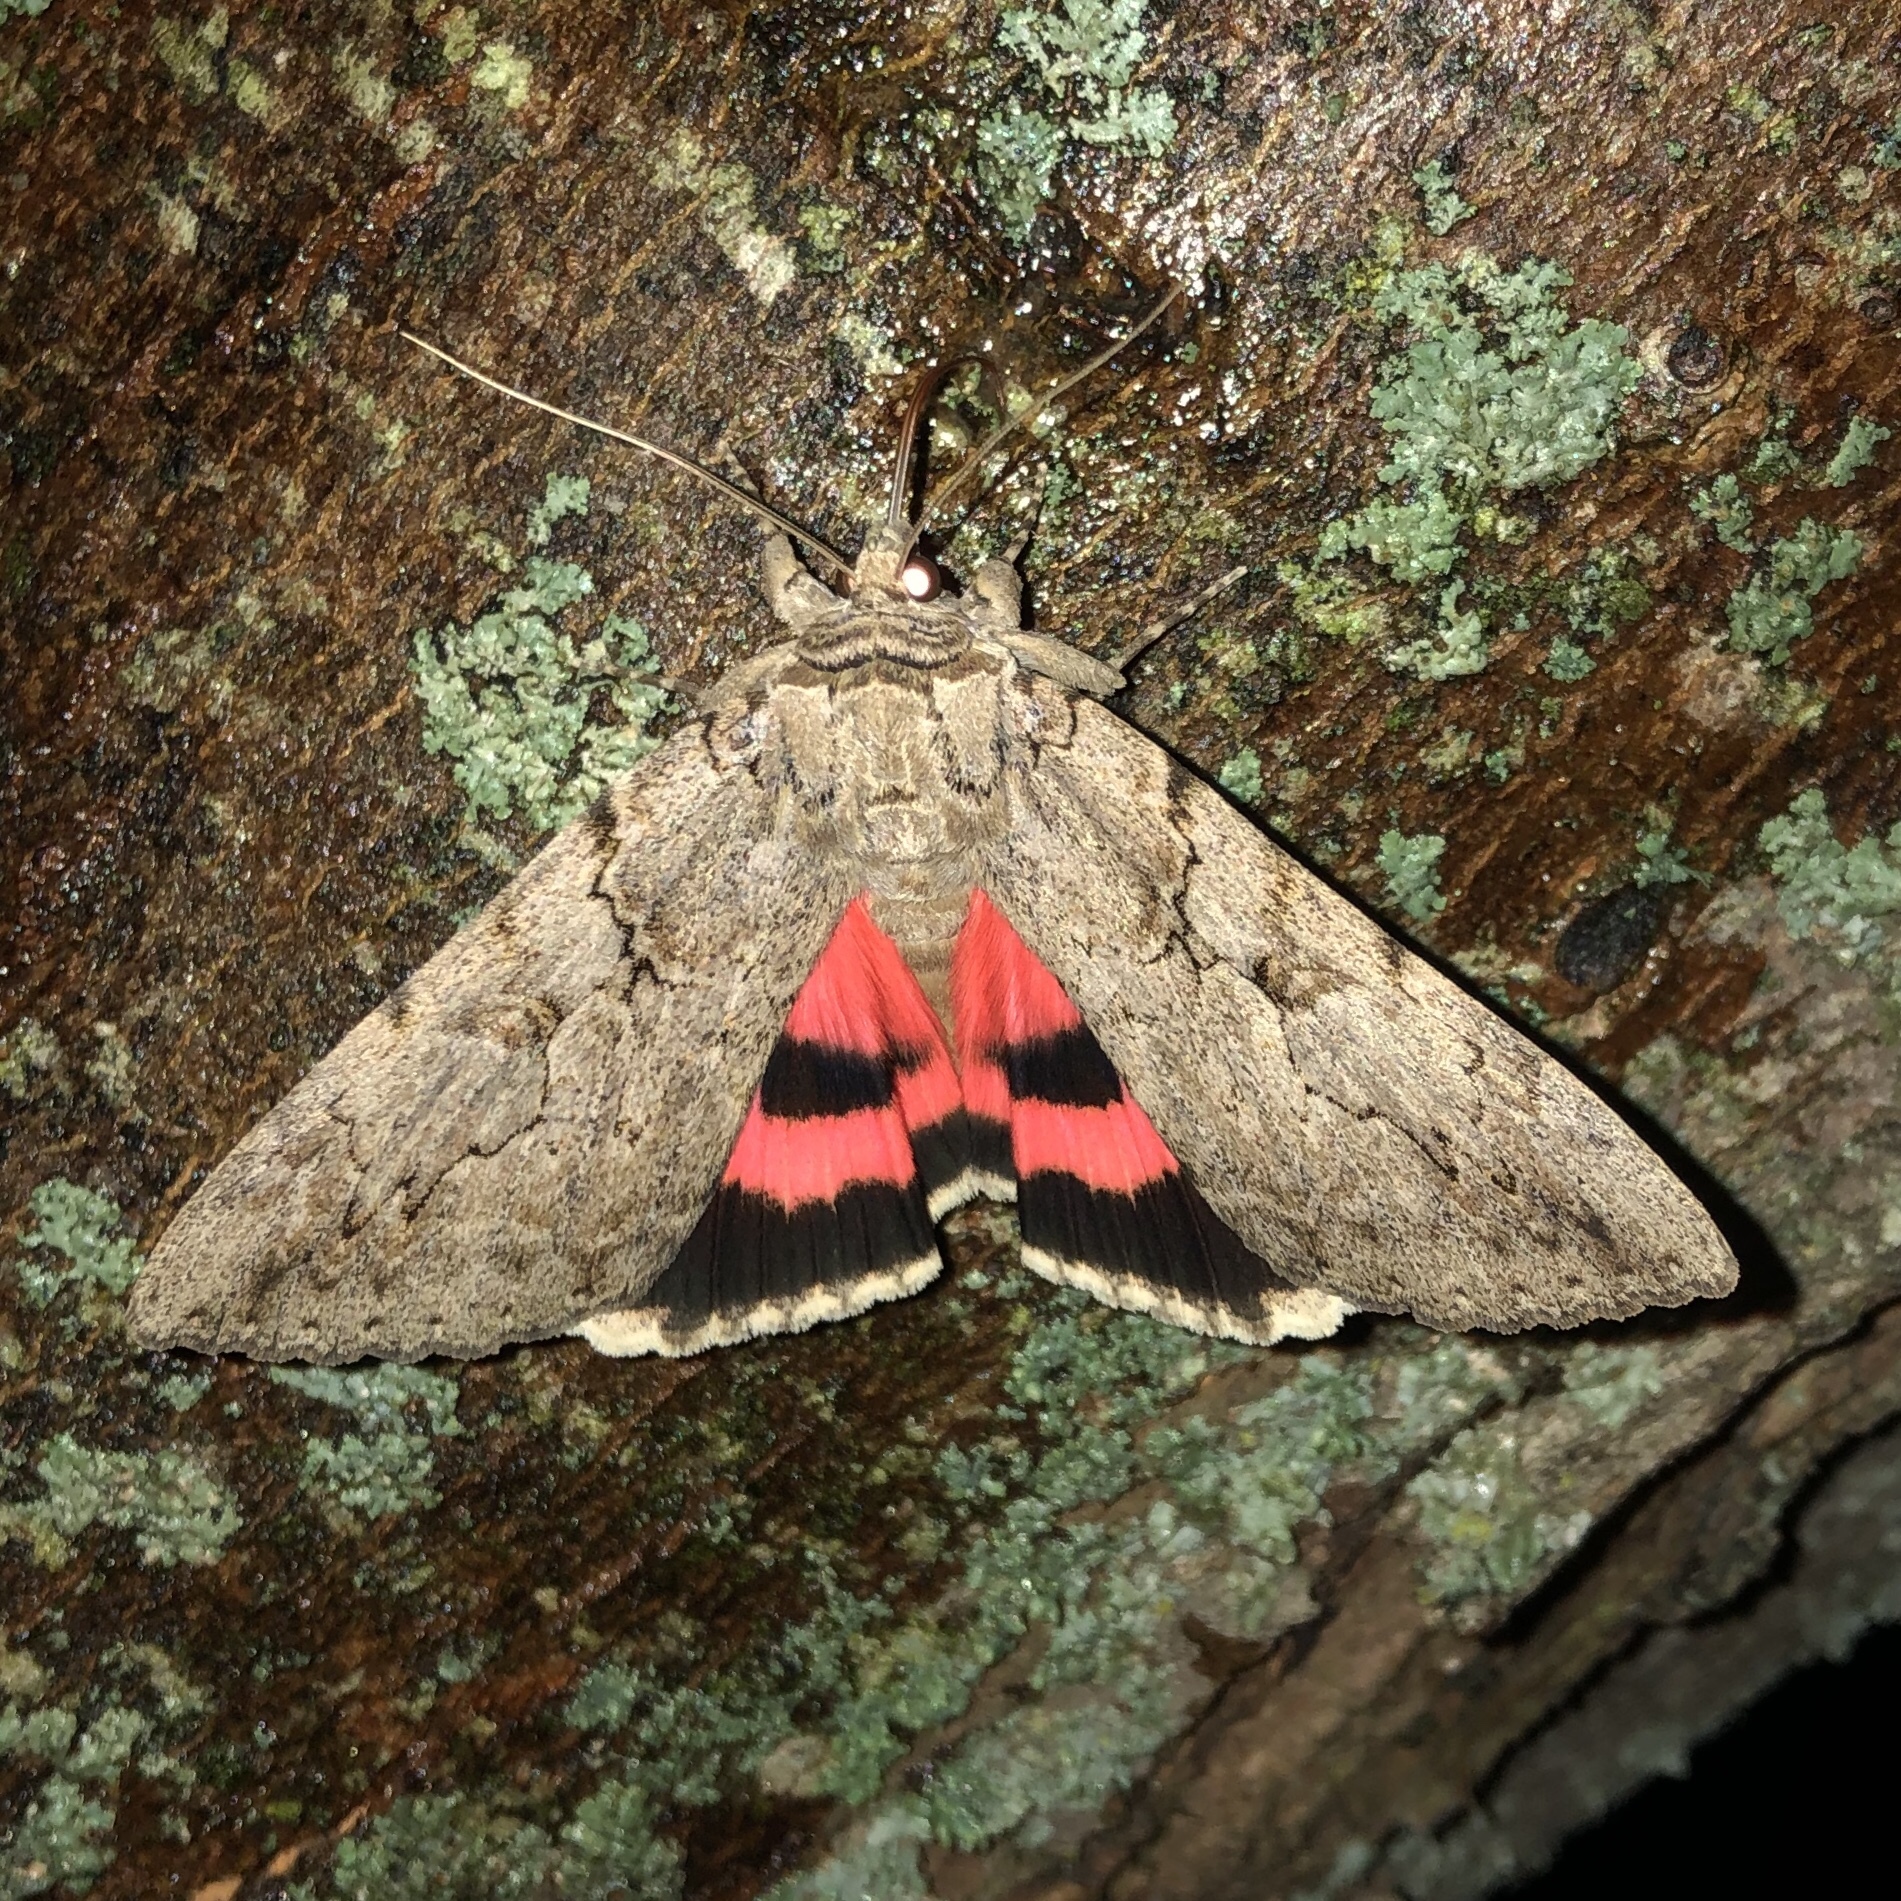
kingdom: Animalia
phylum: Arthropoda
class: Insecta
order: Lepidoptera
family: Erebidae
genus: Catocala
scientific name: Catocala amatrix
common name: Sweetheart underwing
